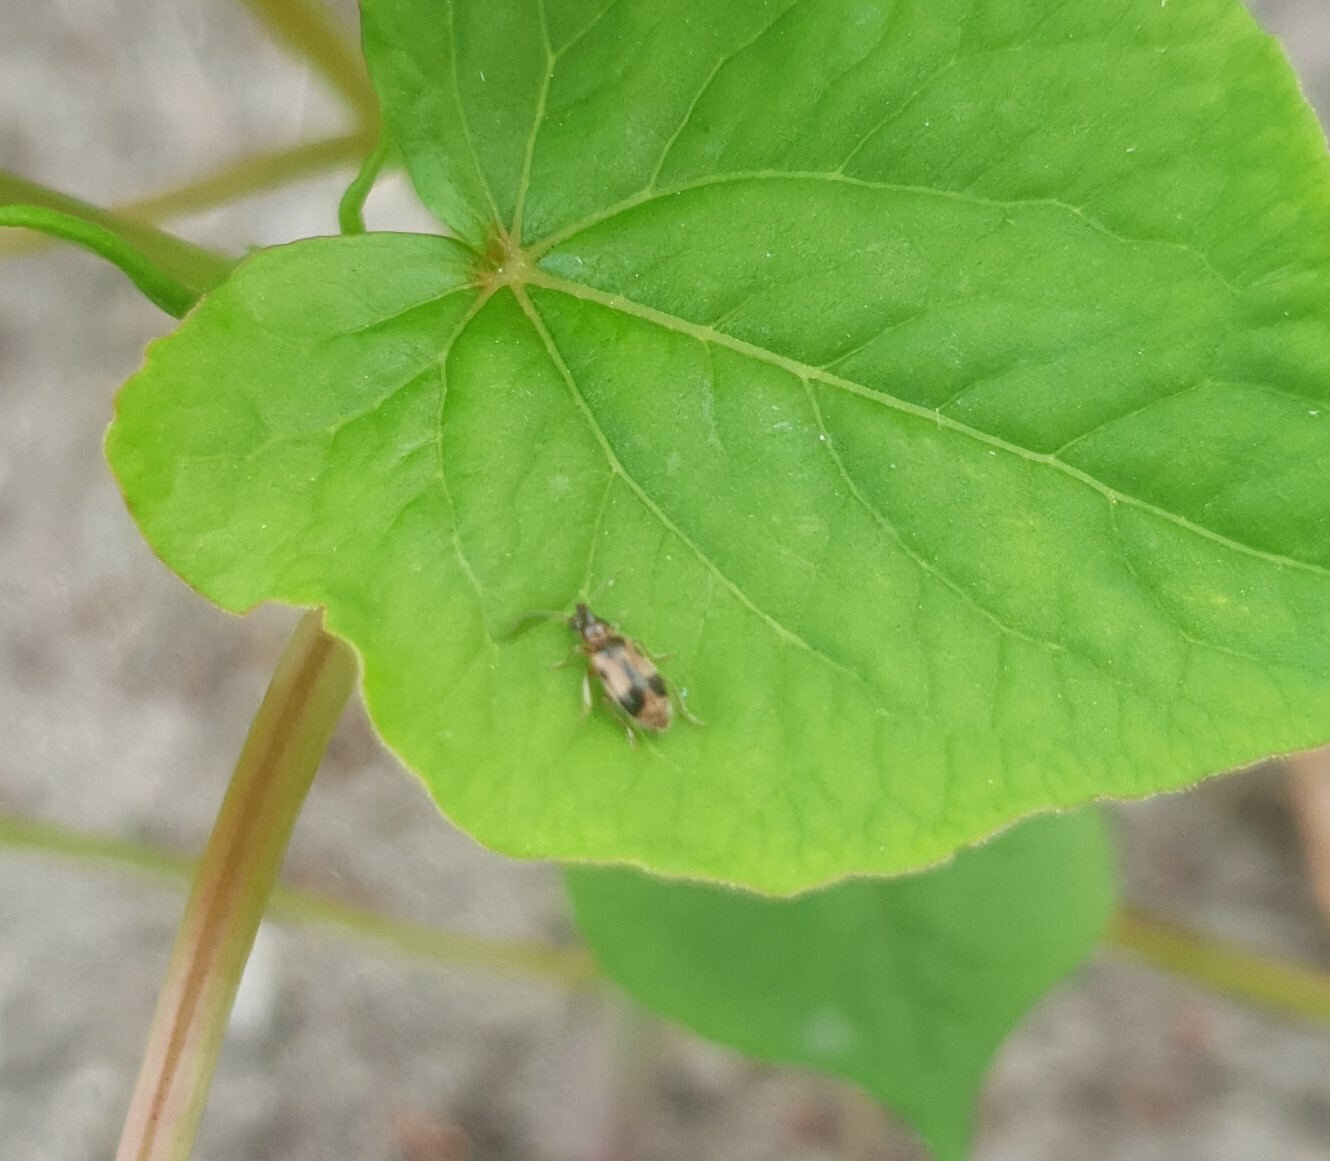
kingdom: Animalia
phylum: Arthropoda
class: Insecta
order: Coleoptera
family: Anthicidae
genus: Notoxus
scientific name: Notoxus monoceros
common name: Monoceros beetle
